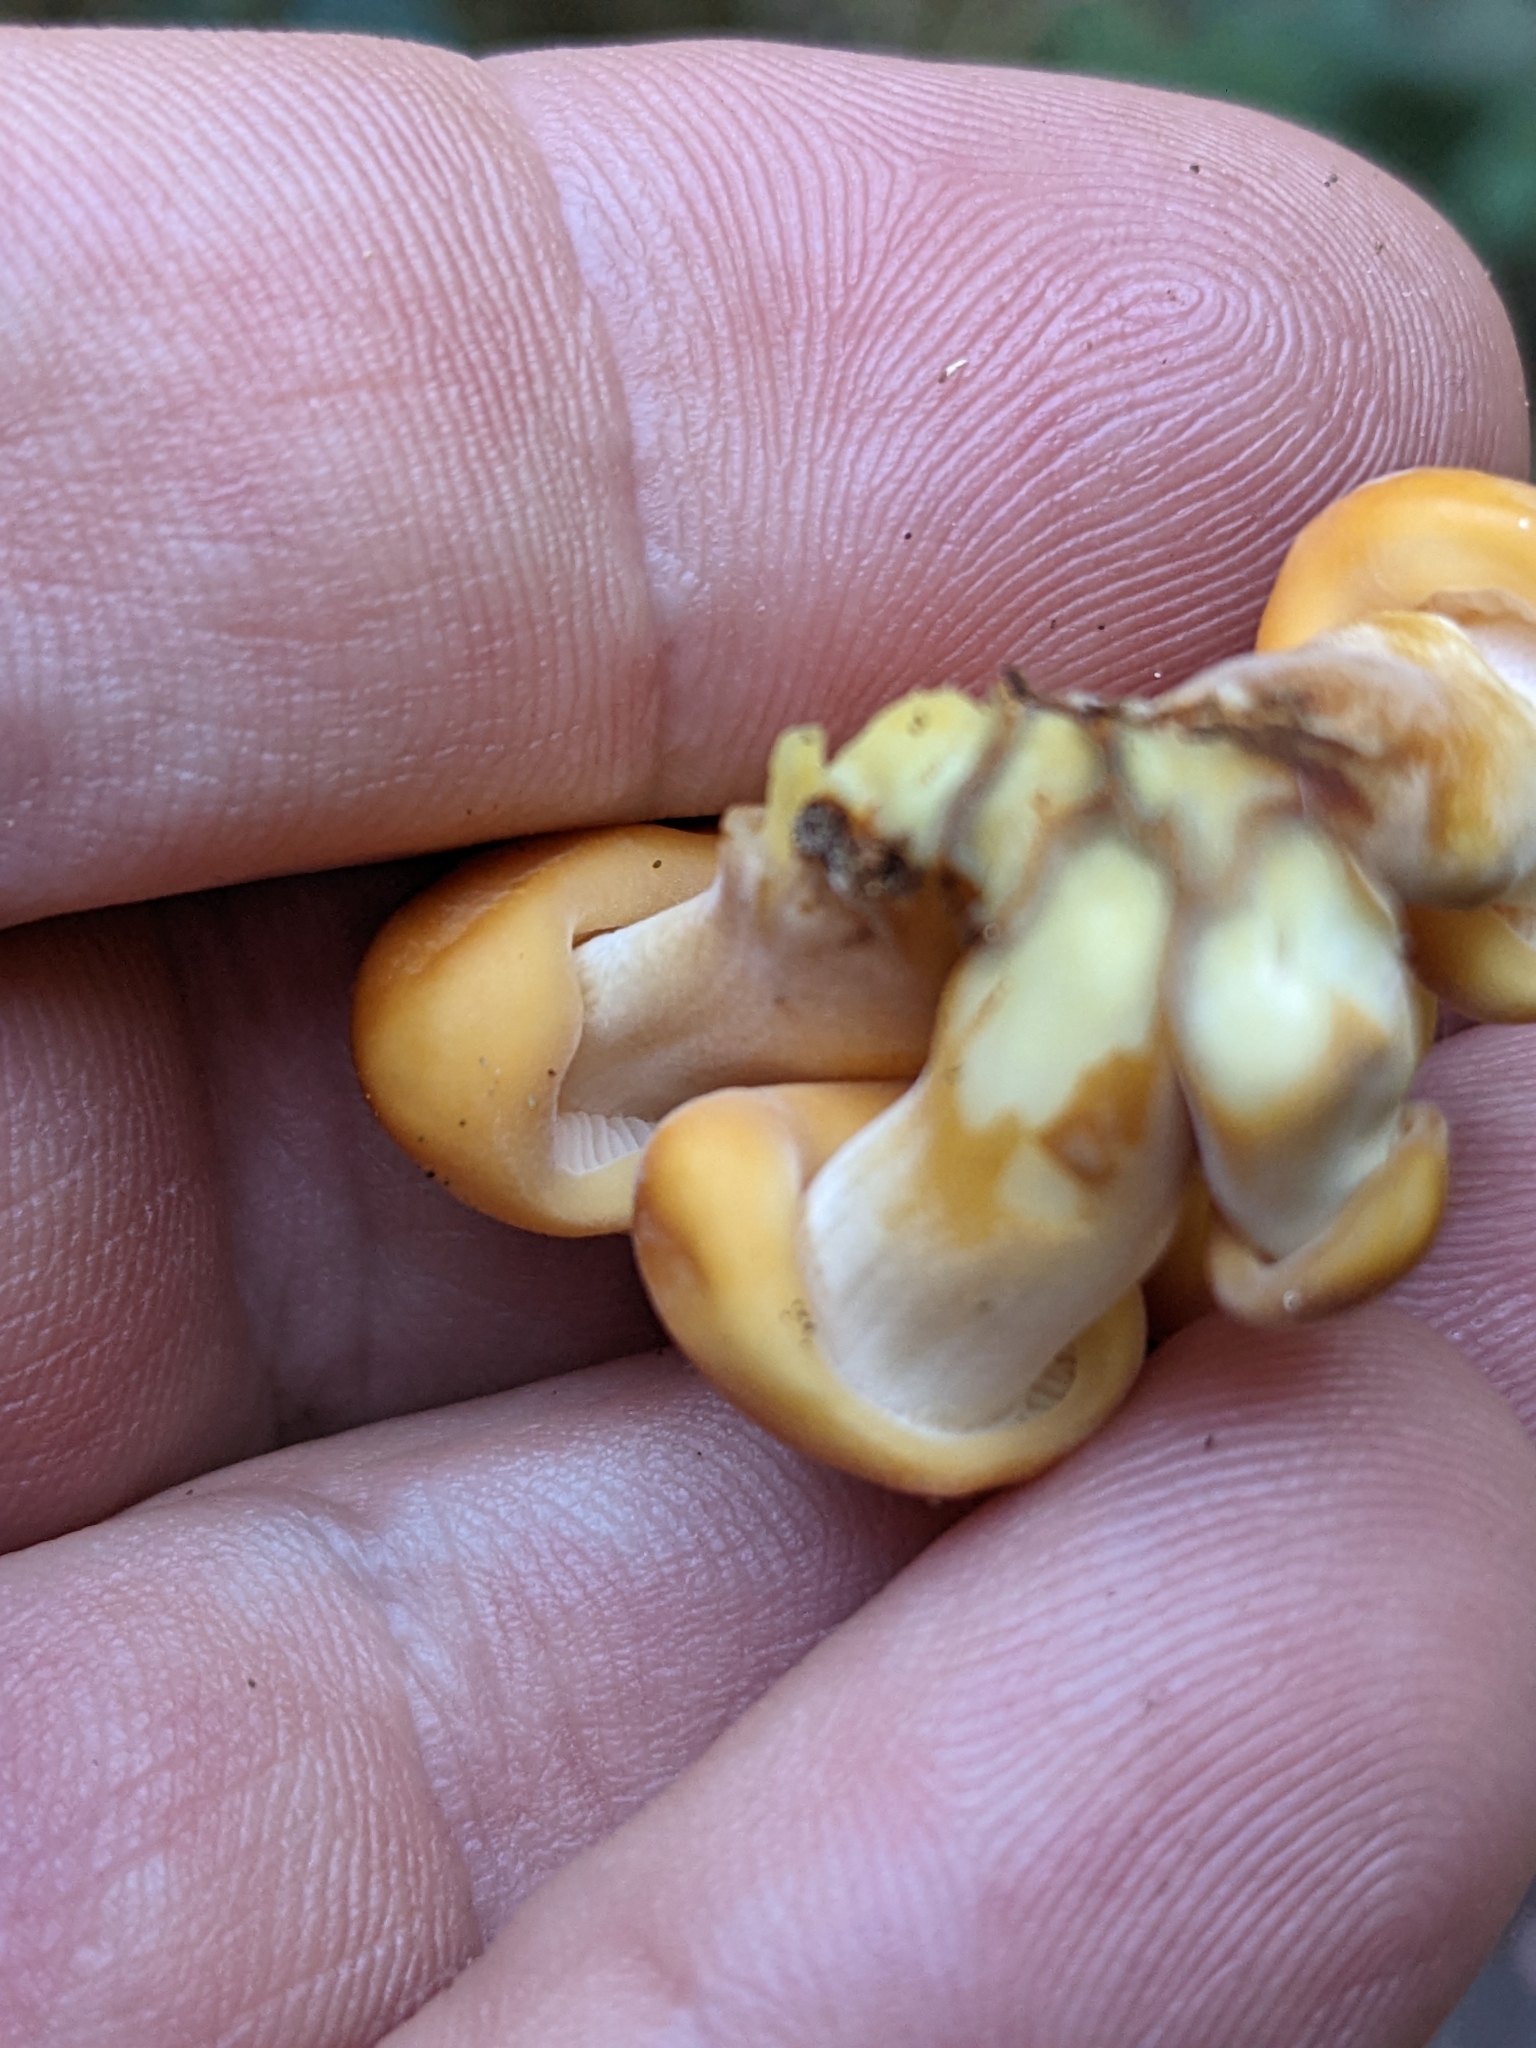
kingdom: Fungi
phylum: Basidiomycota
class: Agaricomycetes
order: Agaricales
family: Physalacriaceae
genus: Flammulina
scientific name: Flammulina velutipes
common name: Velvet shank
